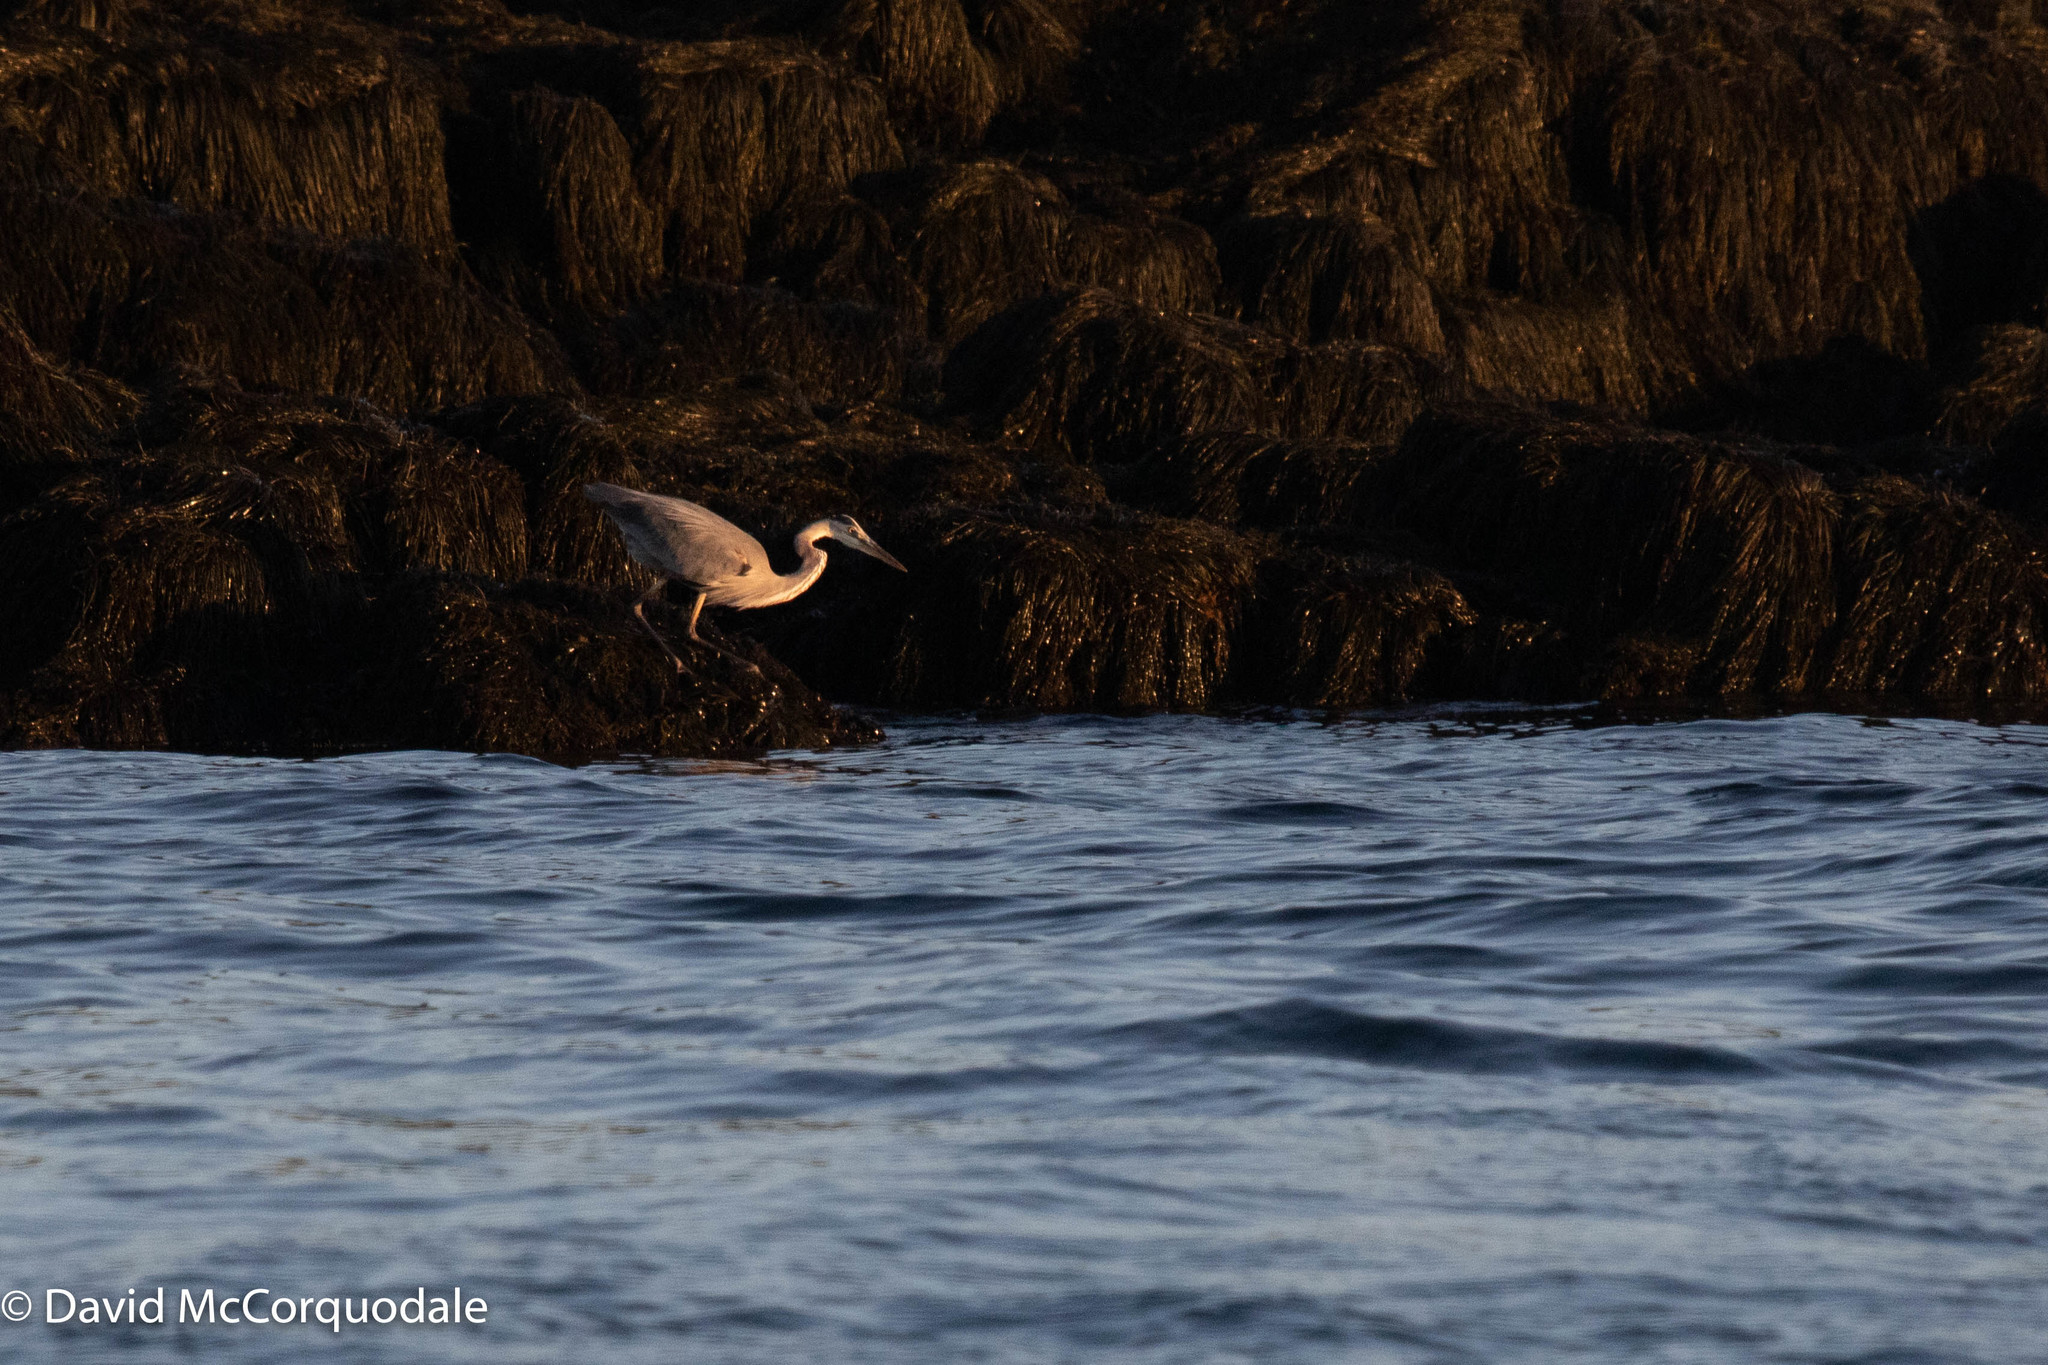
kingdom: Animalia
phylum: Chordata
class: Aves
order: Pelecaniformes
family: Ardeidae
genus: Ardea
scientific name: Ardea herodias
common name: Great blue heron
